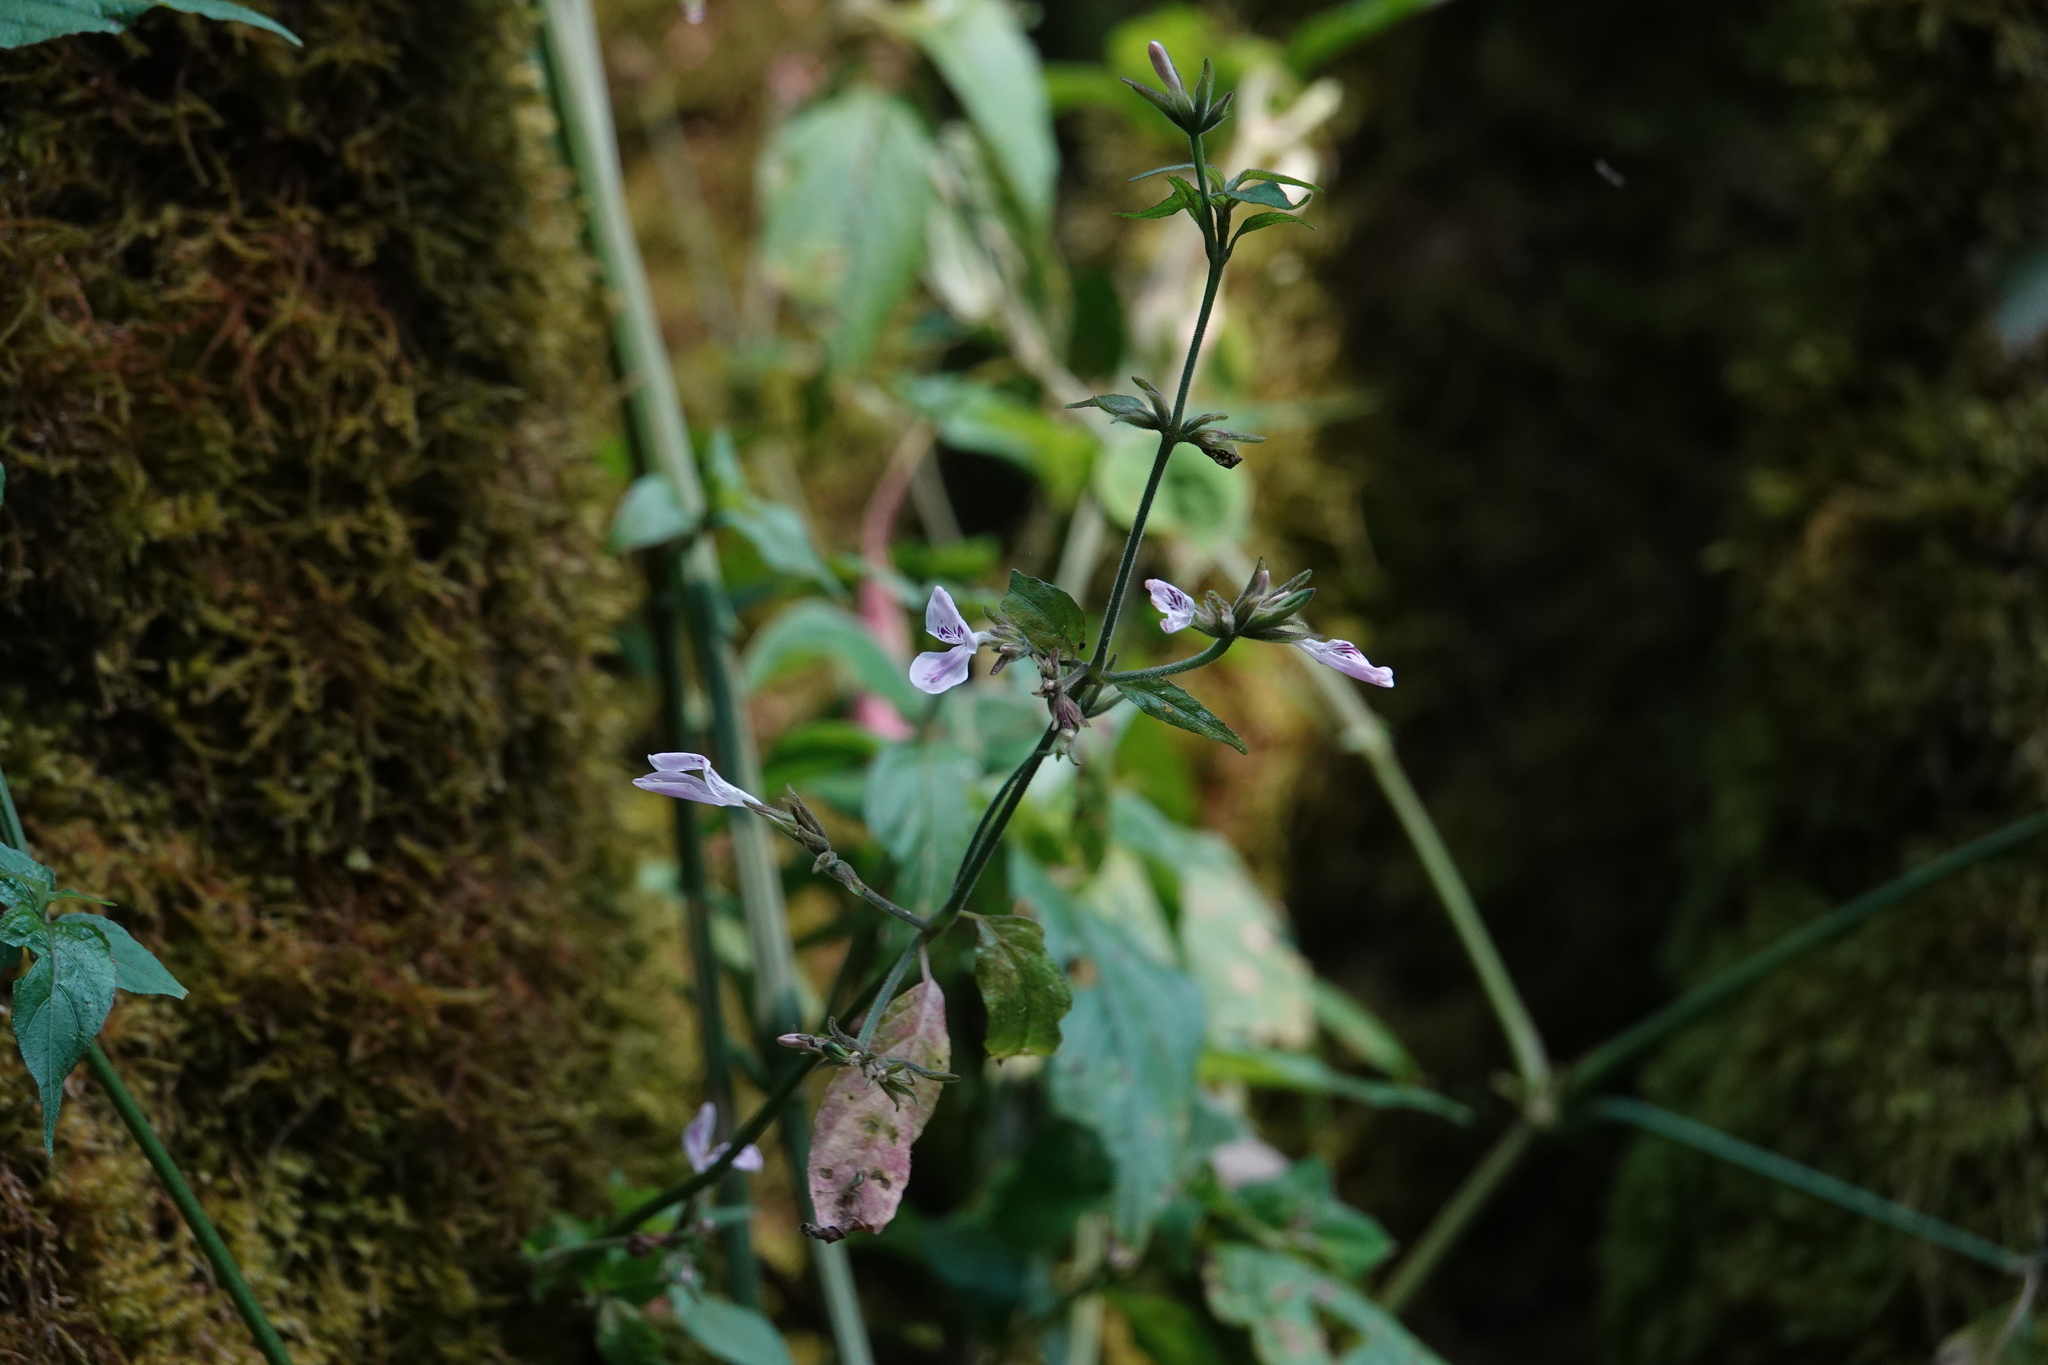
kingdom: Plantae
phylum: Tracheophyta
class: Magnoliopsida
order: Lamiales
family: Acanthaceae
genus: Hypoestes
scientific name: Hypoestes triflora
